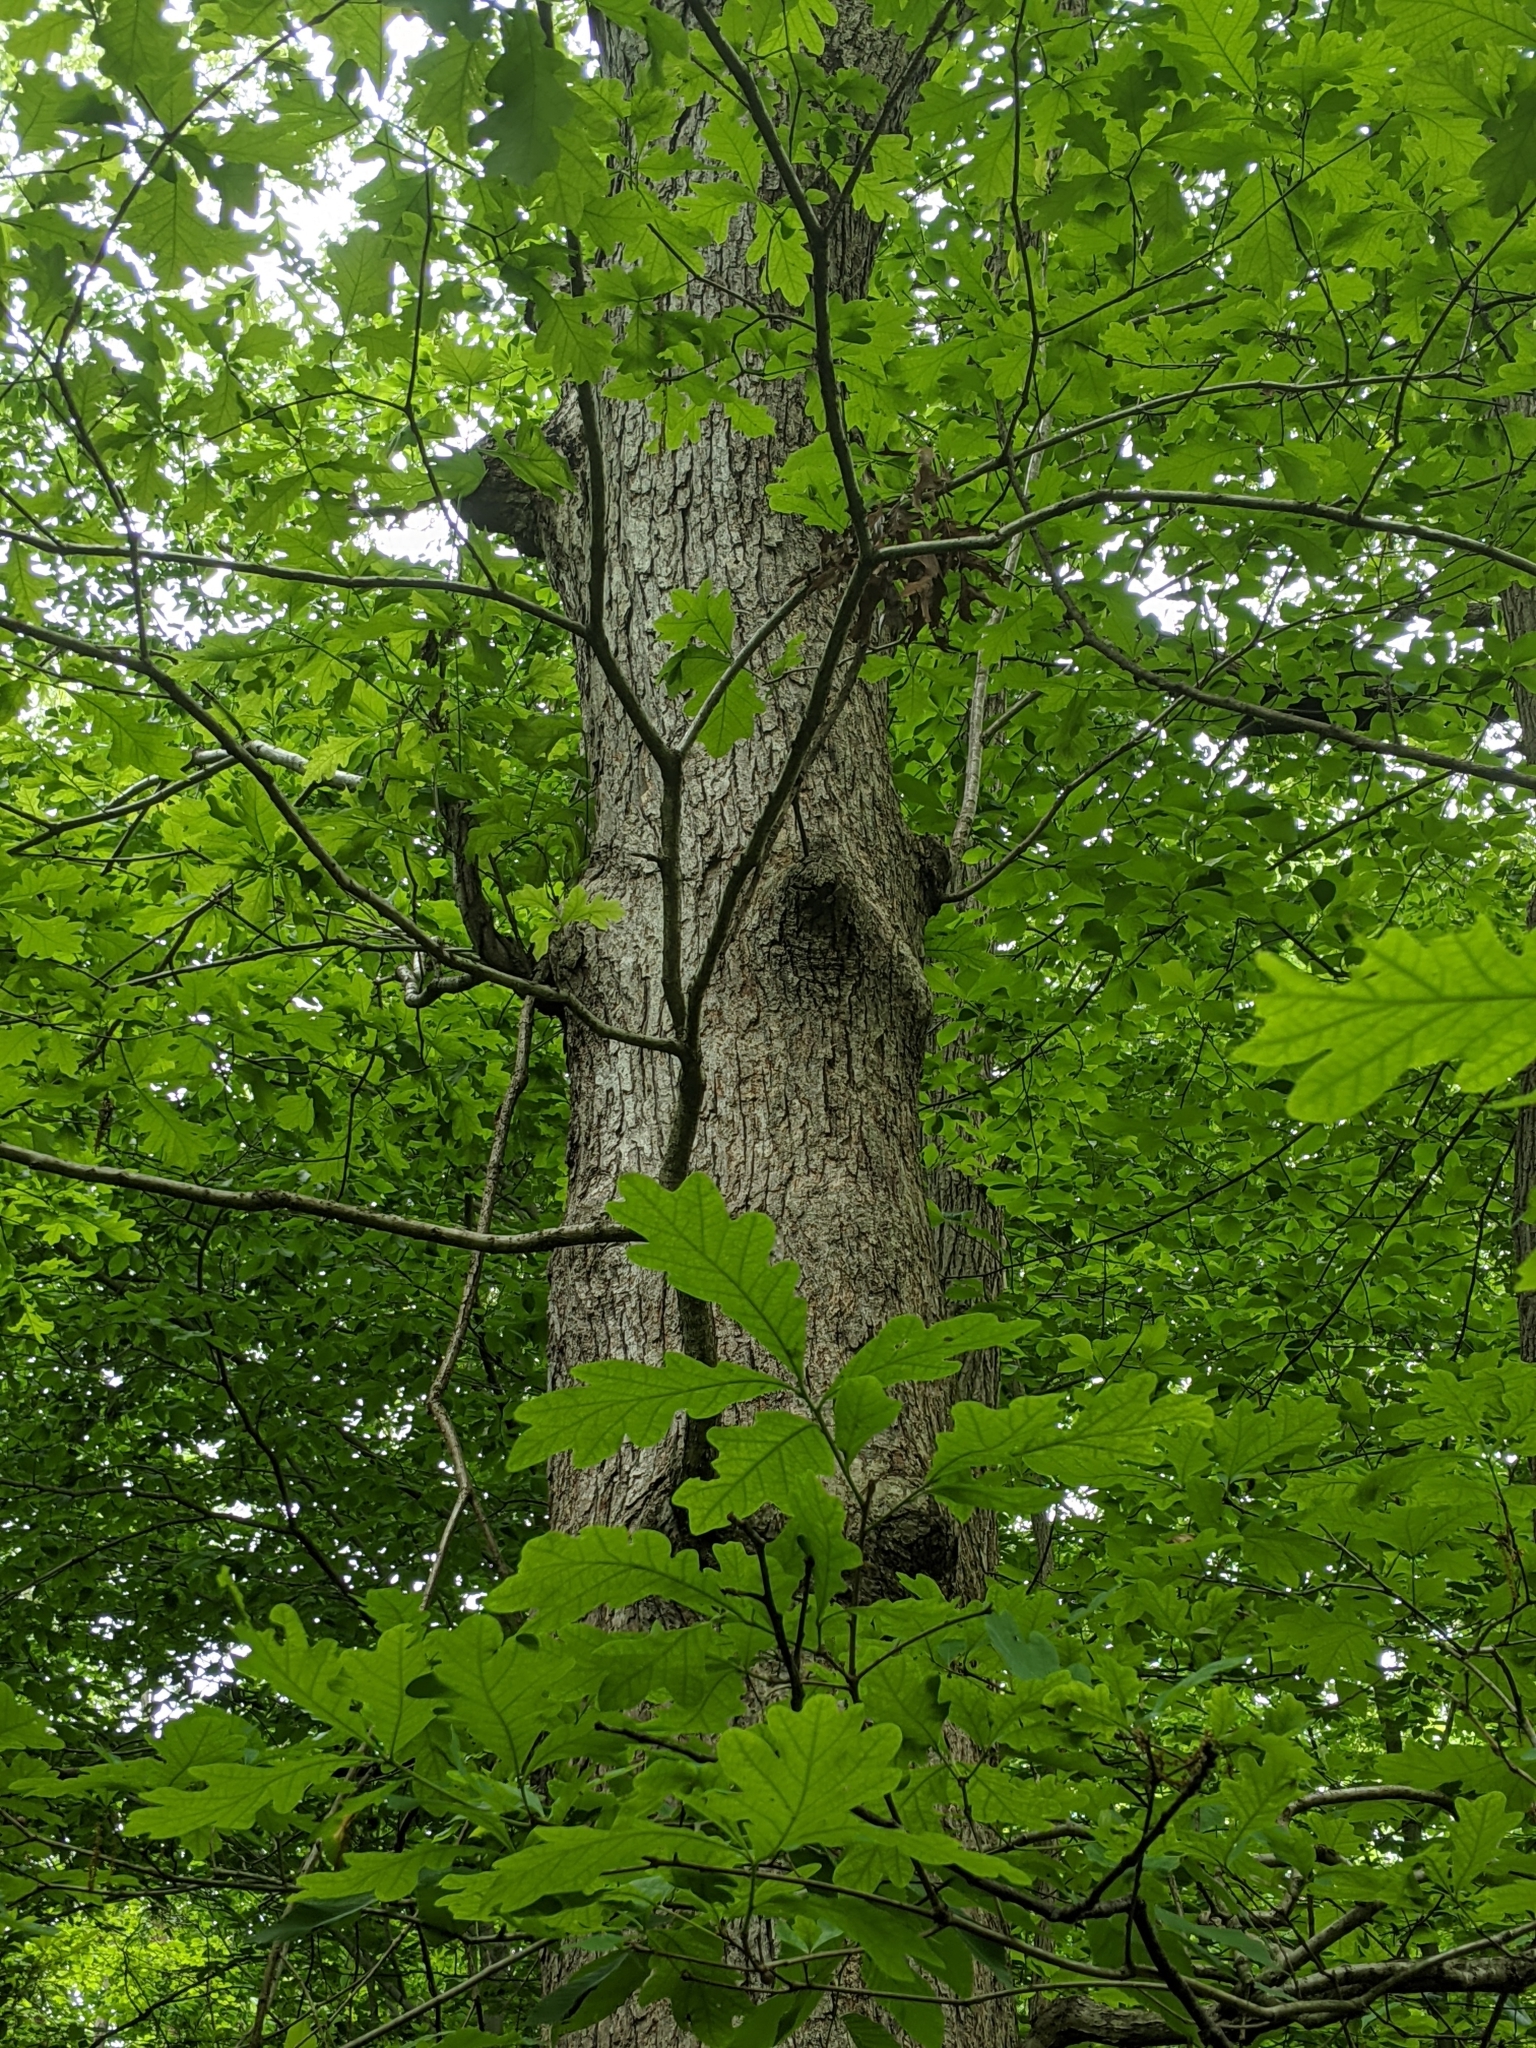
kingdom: Plantae
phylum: Tracheophyta
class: Magnoliopsida
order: Fagales
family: Fagaceae
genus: Quercus
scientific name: Quercus alba
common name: White oak
